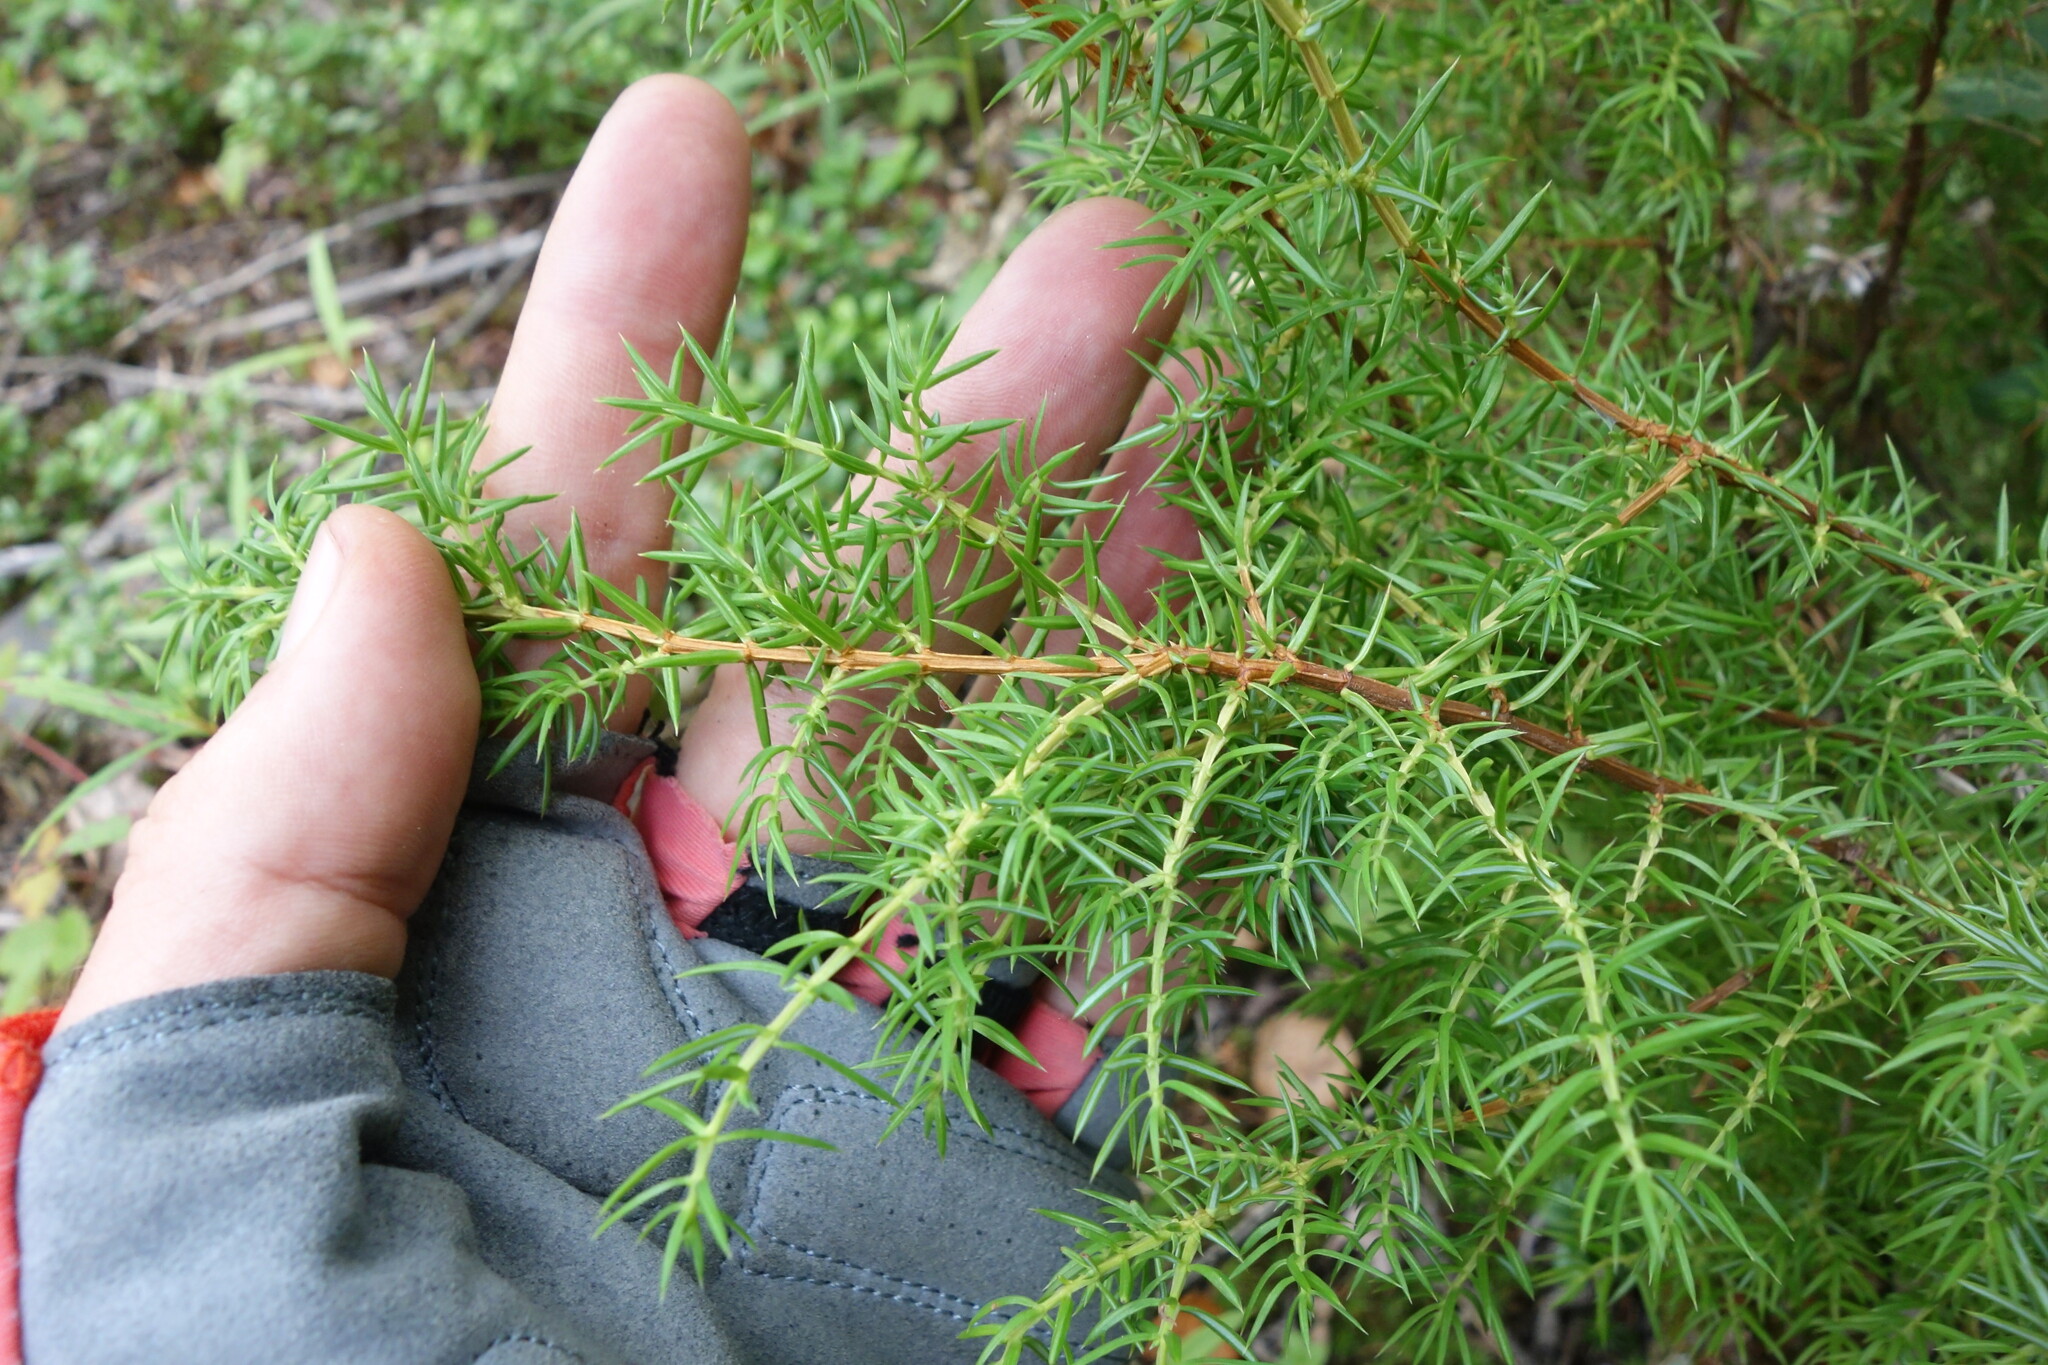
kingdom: Plantae
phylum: Tracheophyta
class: Pinopsida
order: Pinales
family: Cupressaceae
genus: Juniperus
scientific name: Juniperus communis
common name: Common juniper
